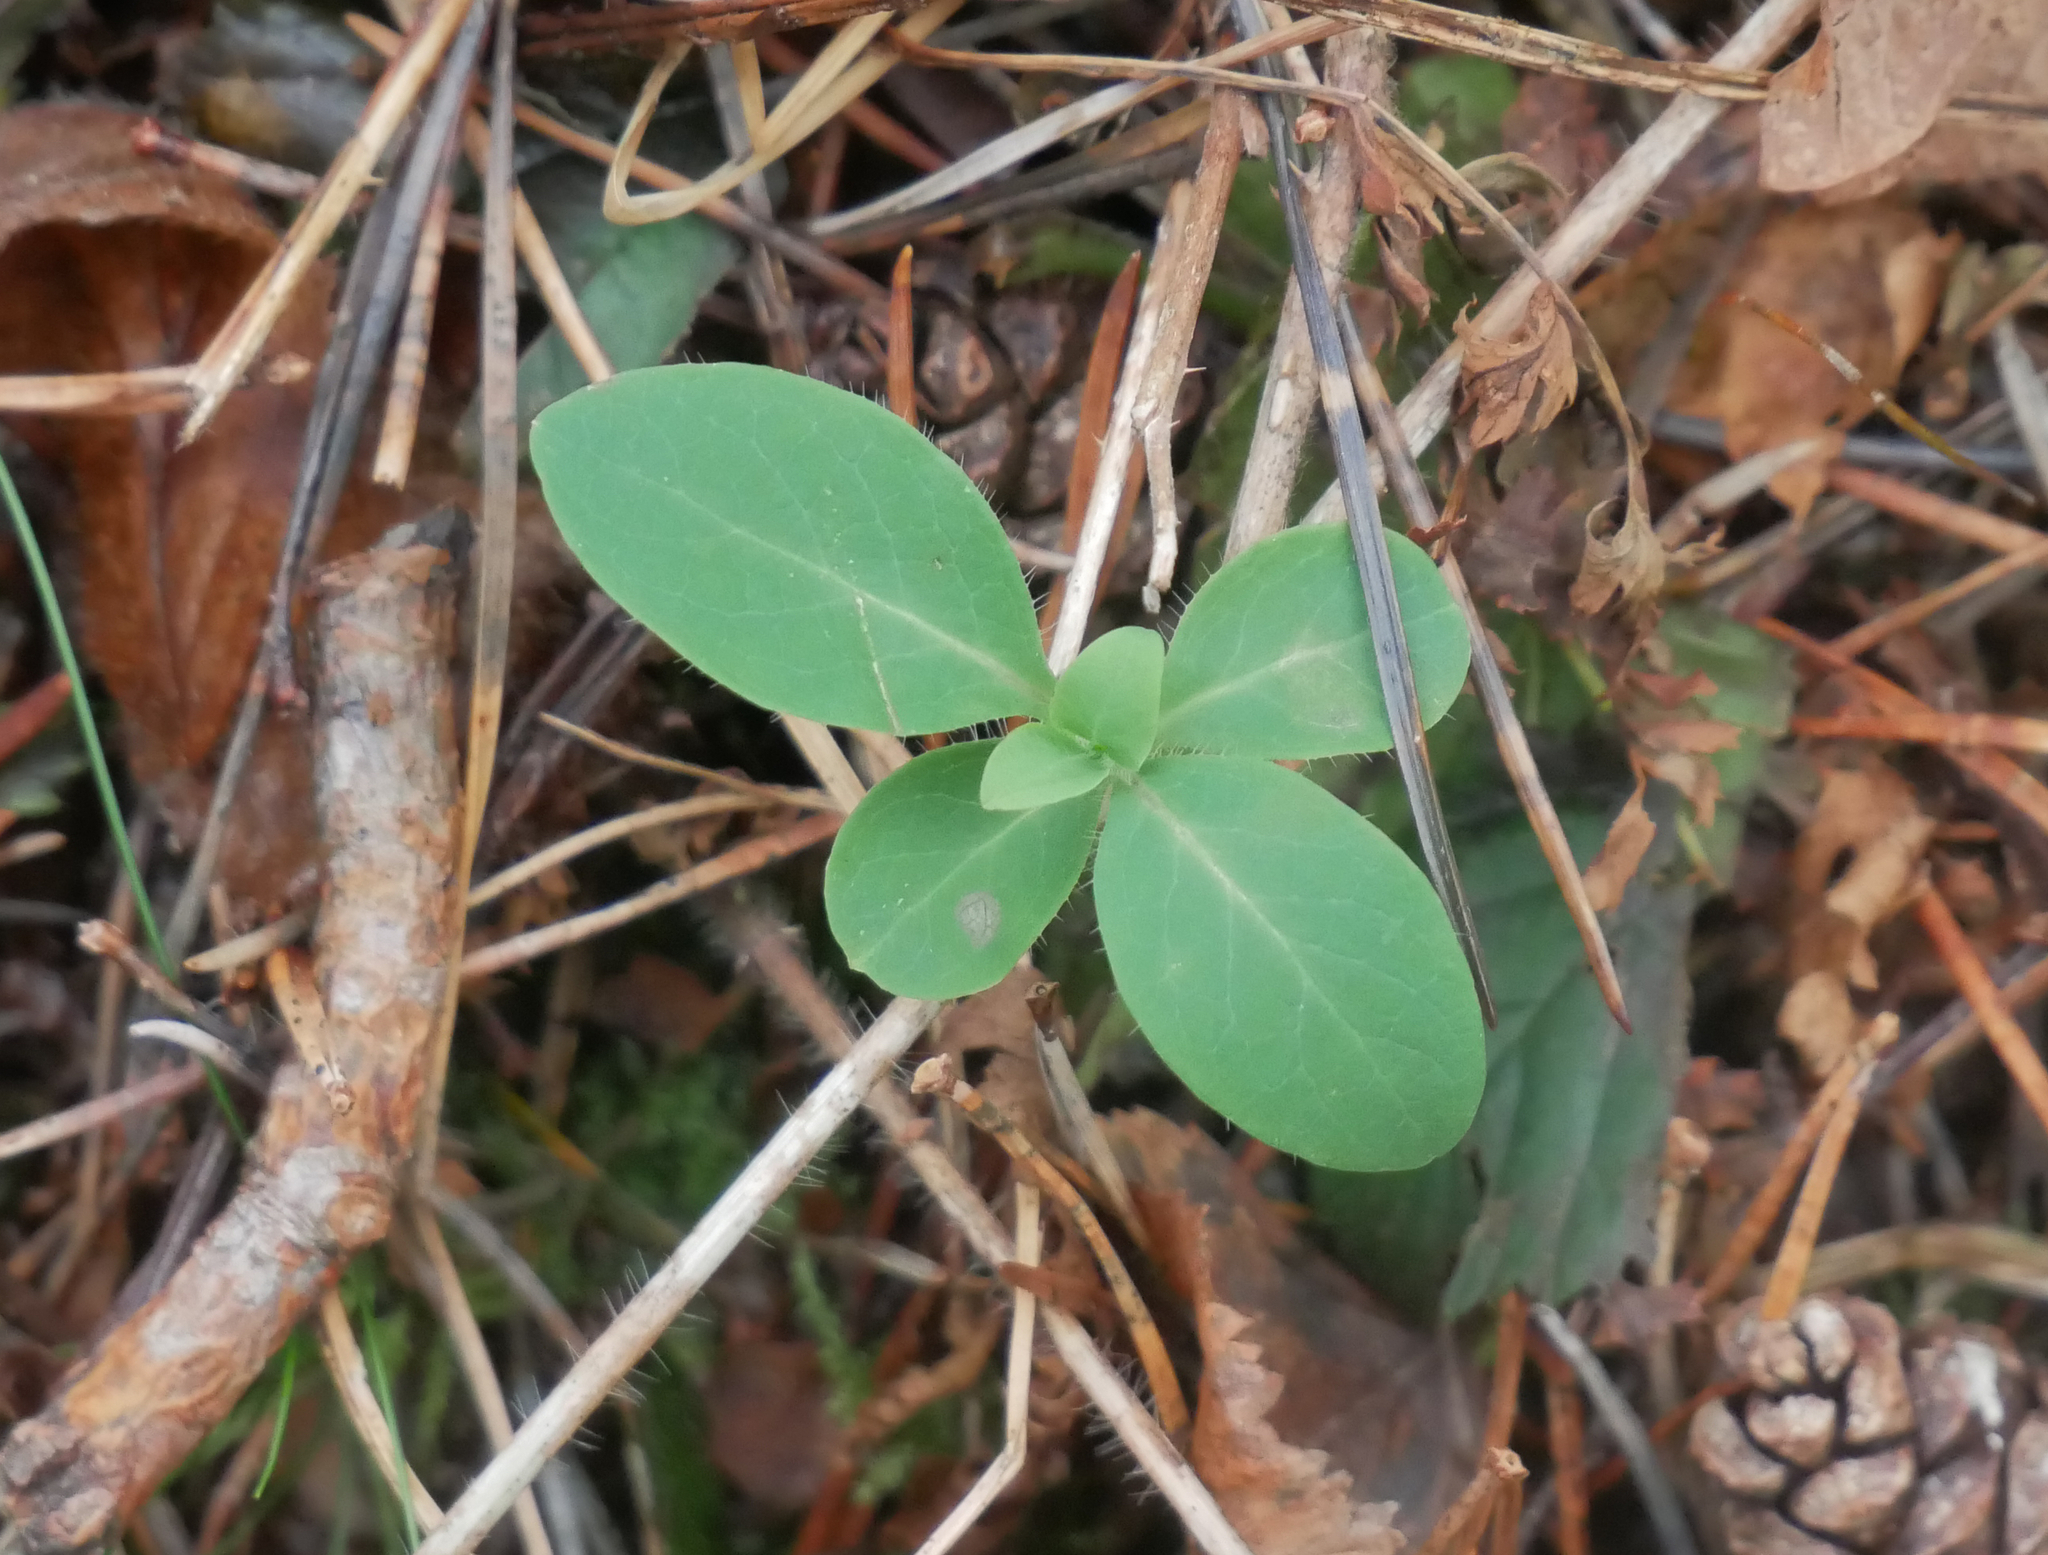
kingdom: Plantae
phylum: Tracheophyta
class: Magnoliopsida
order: Dipsacales
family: Caprifoliaceae
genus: Lonicera
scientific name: Lonicera periclymenum
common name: European honeysuckle
